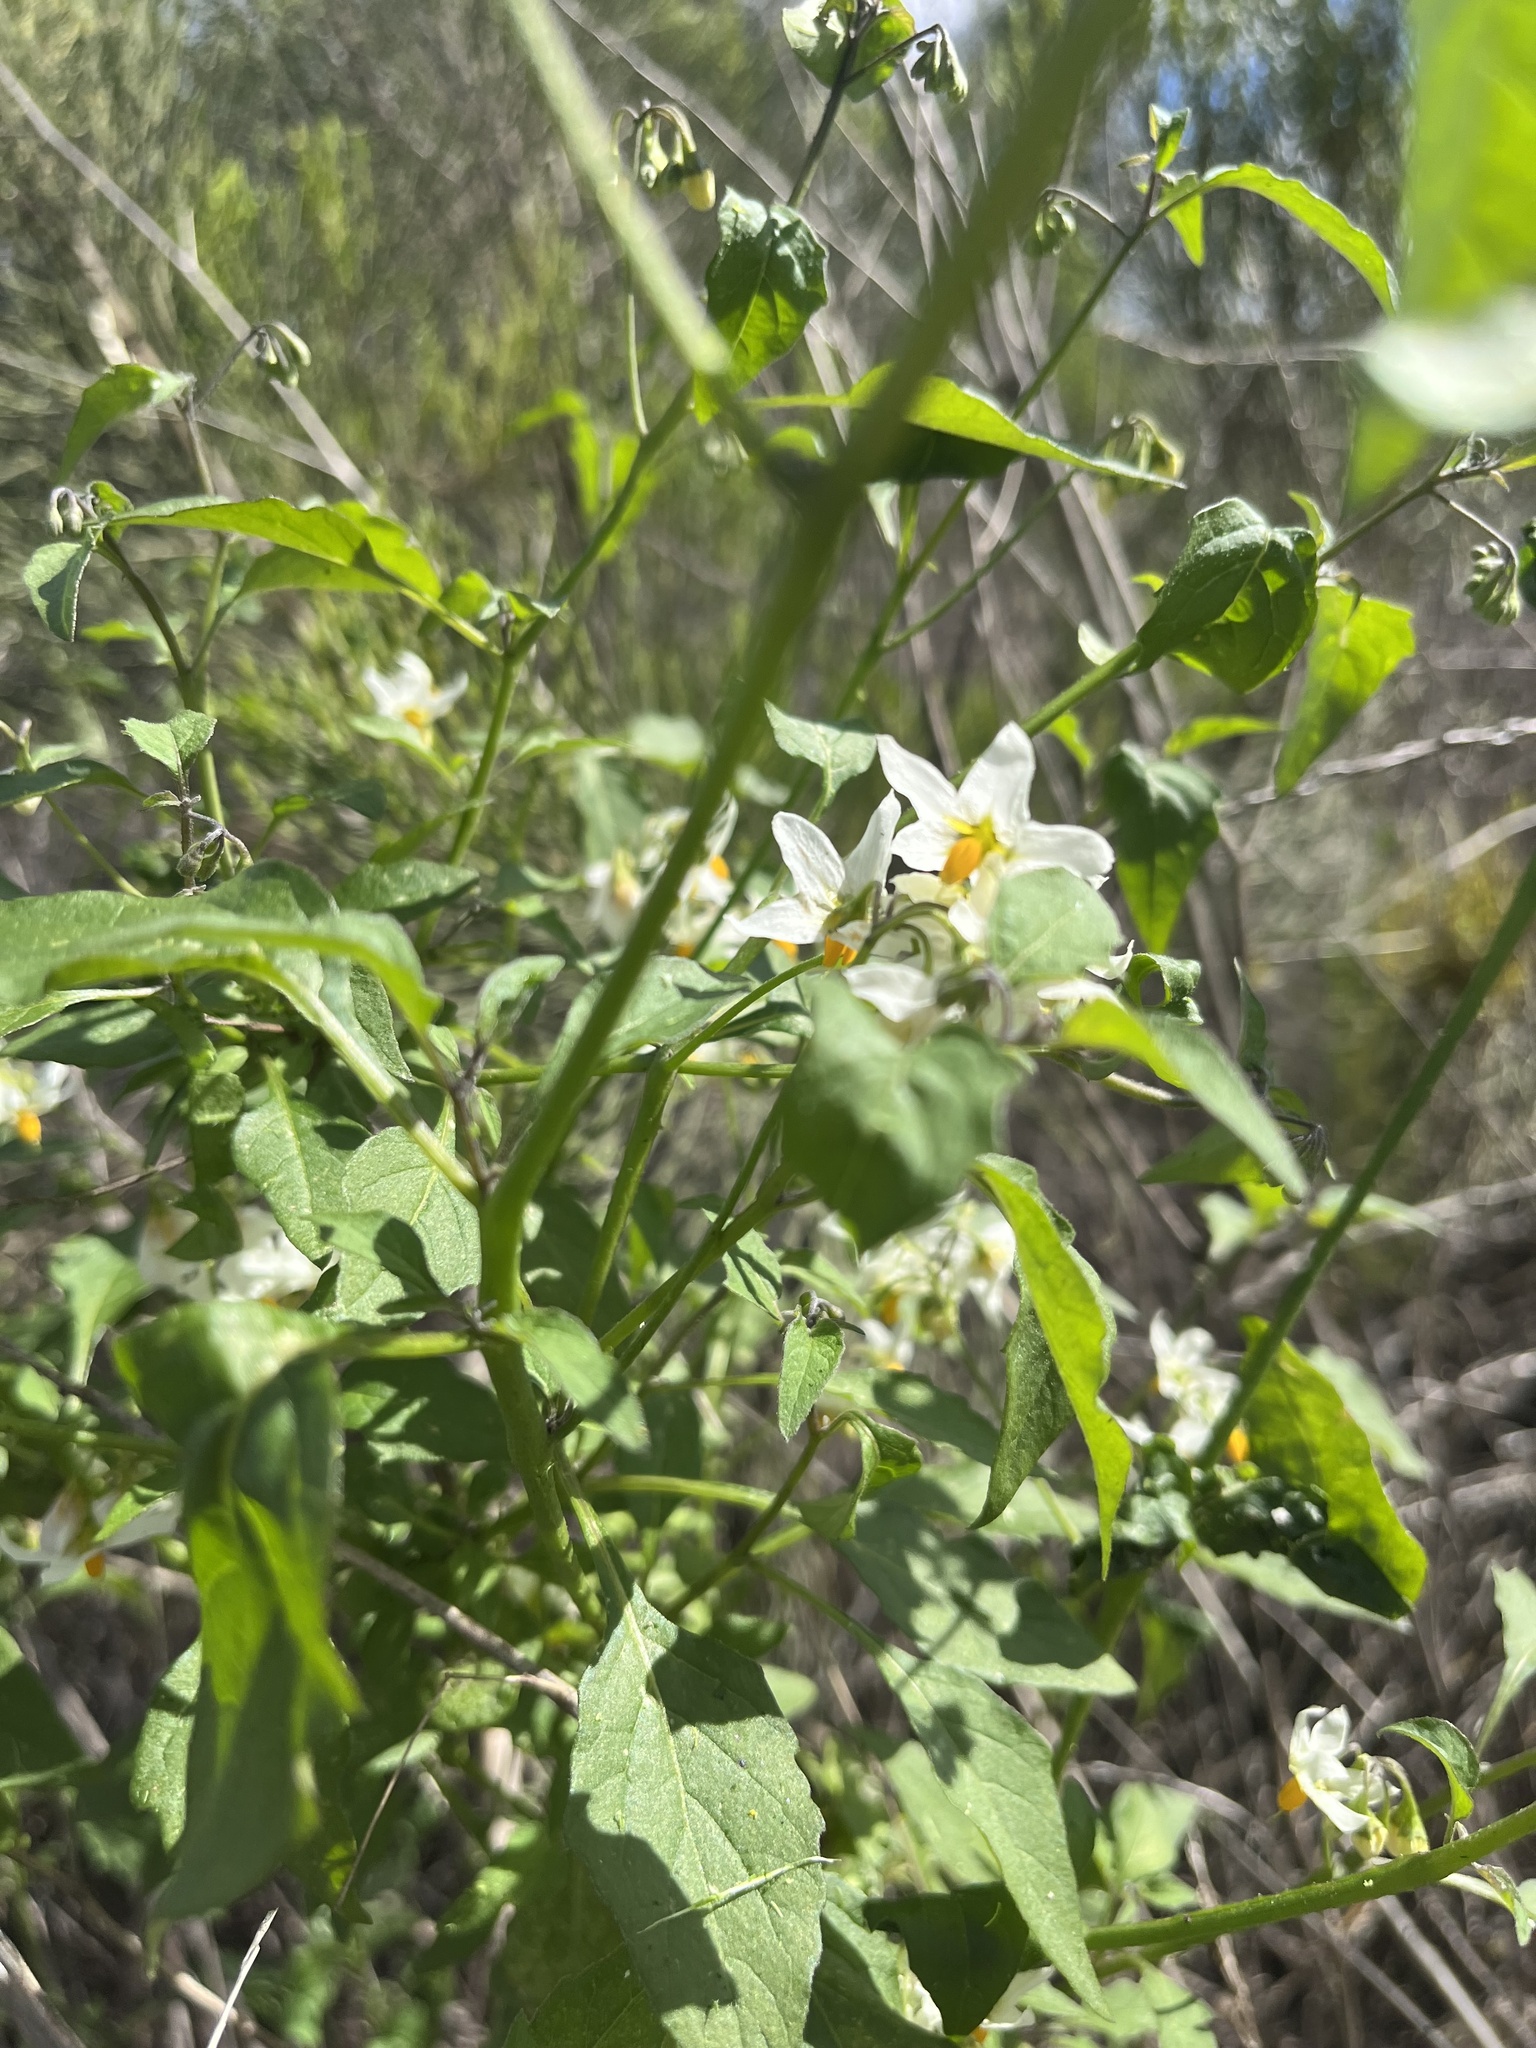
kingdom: Plantae
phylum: Tracheophyta
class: Magnoliopsida
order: Solanales
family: Solanaceae
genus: Solanum
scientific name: Solanum douglasii
